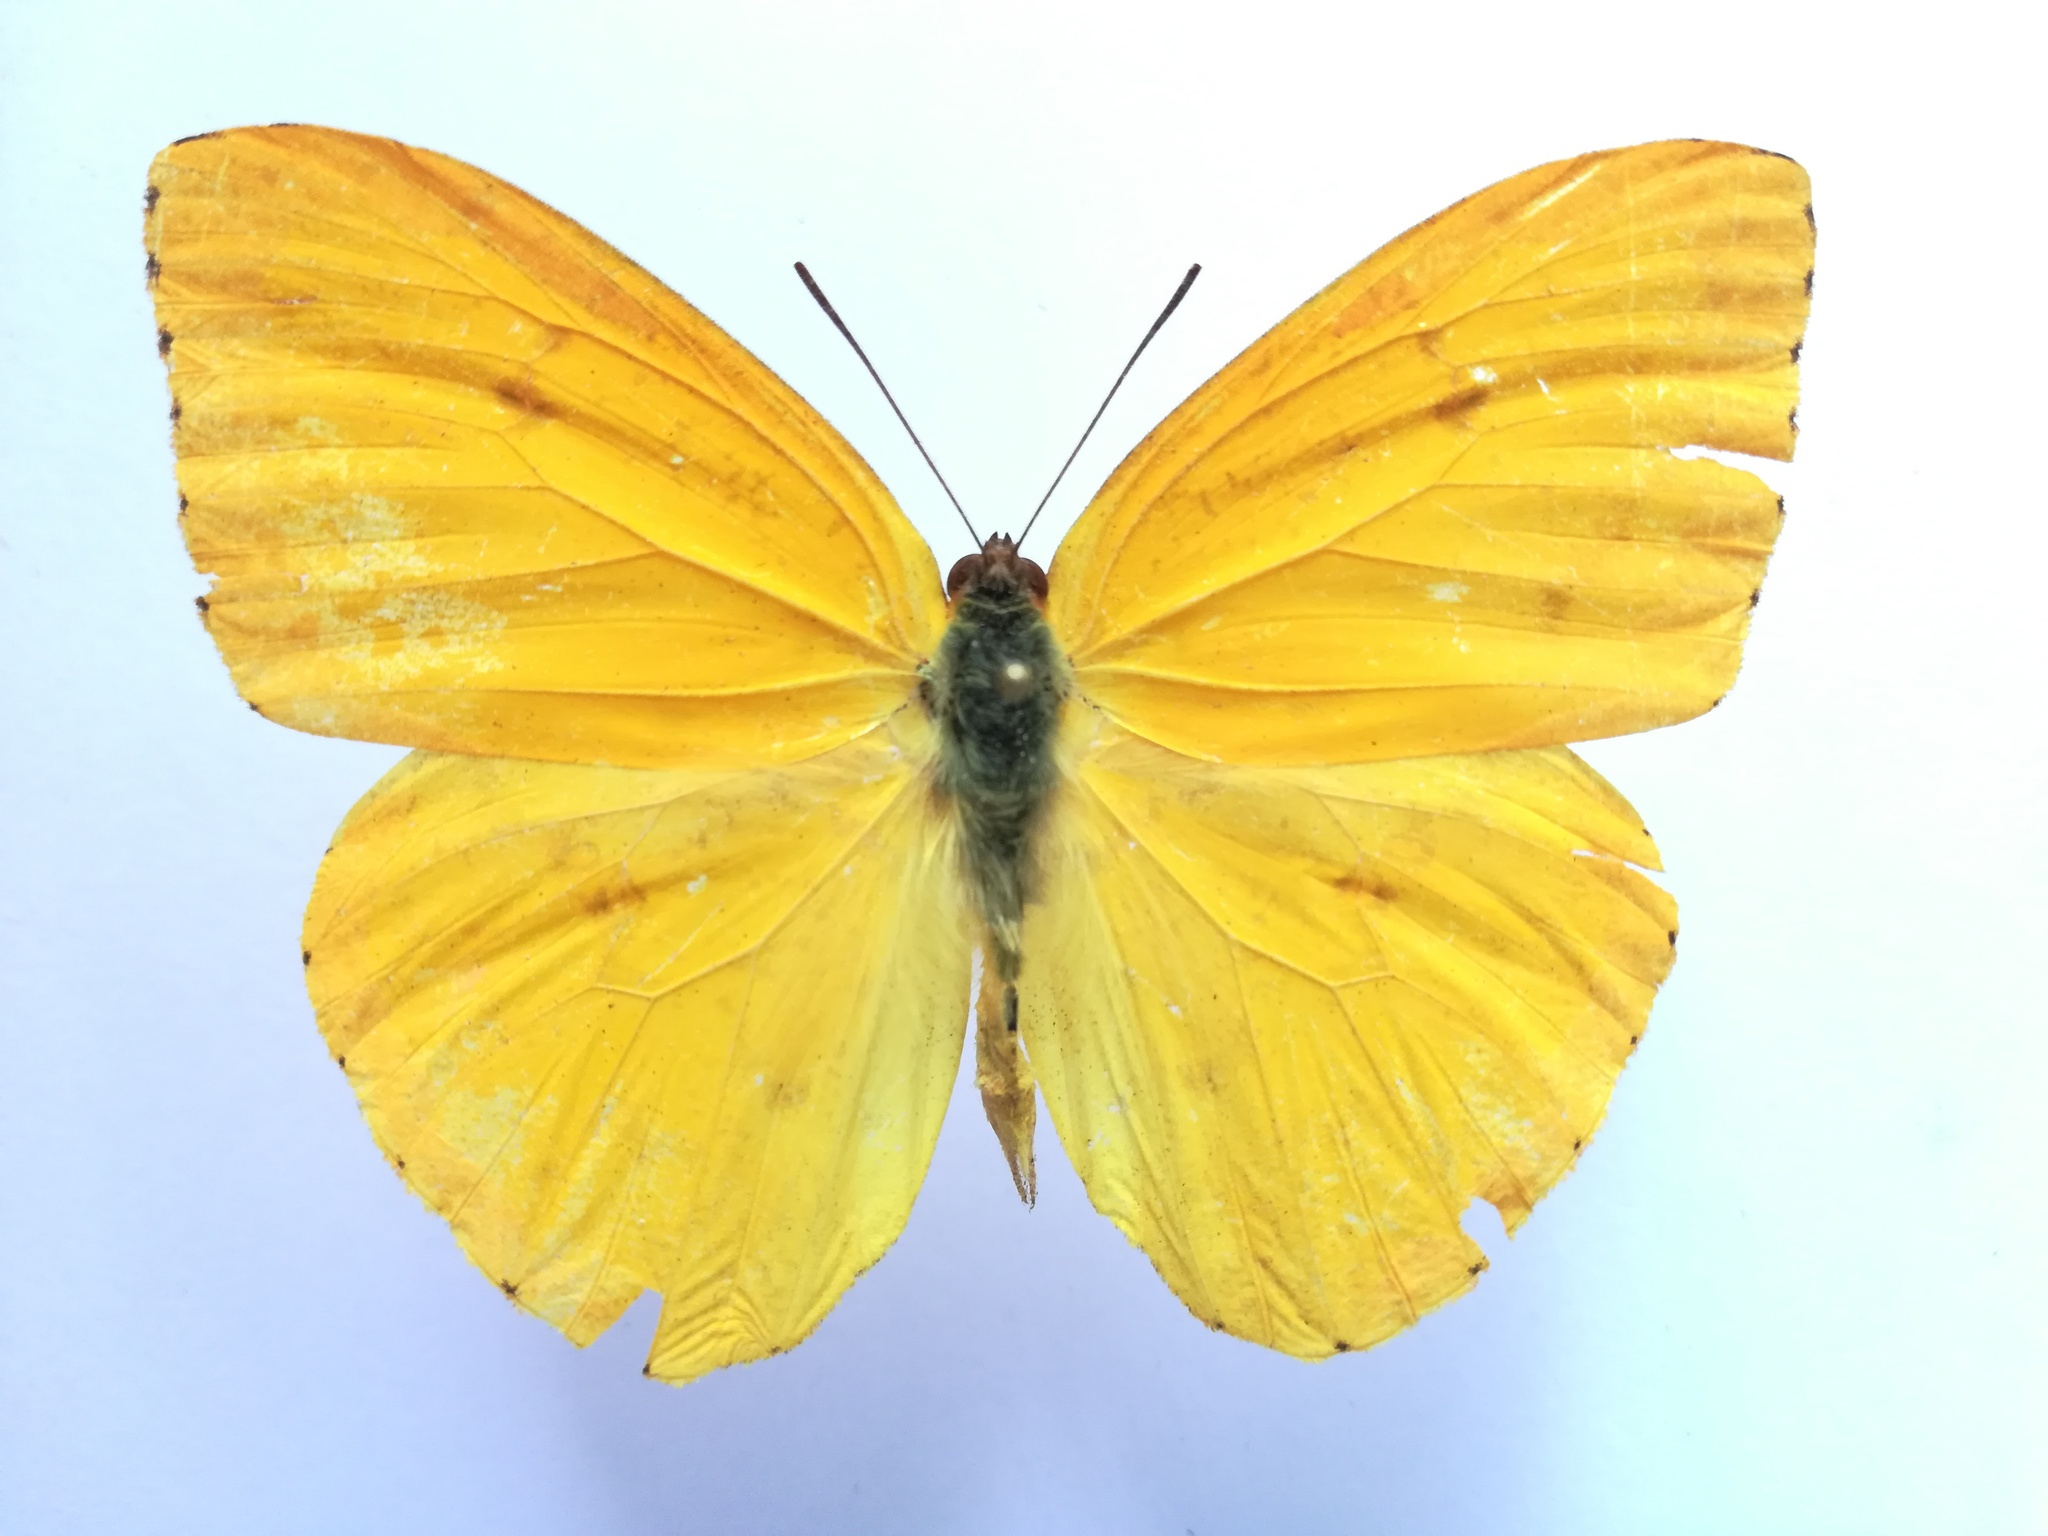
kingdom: Animalia
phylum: Arthropoda
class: Insecta
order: Lepidoptera
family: Pieridae
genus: Phoebis
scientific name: Phoebis argante
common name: Apricot sulphur
